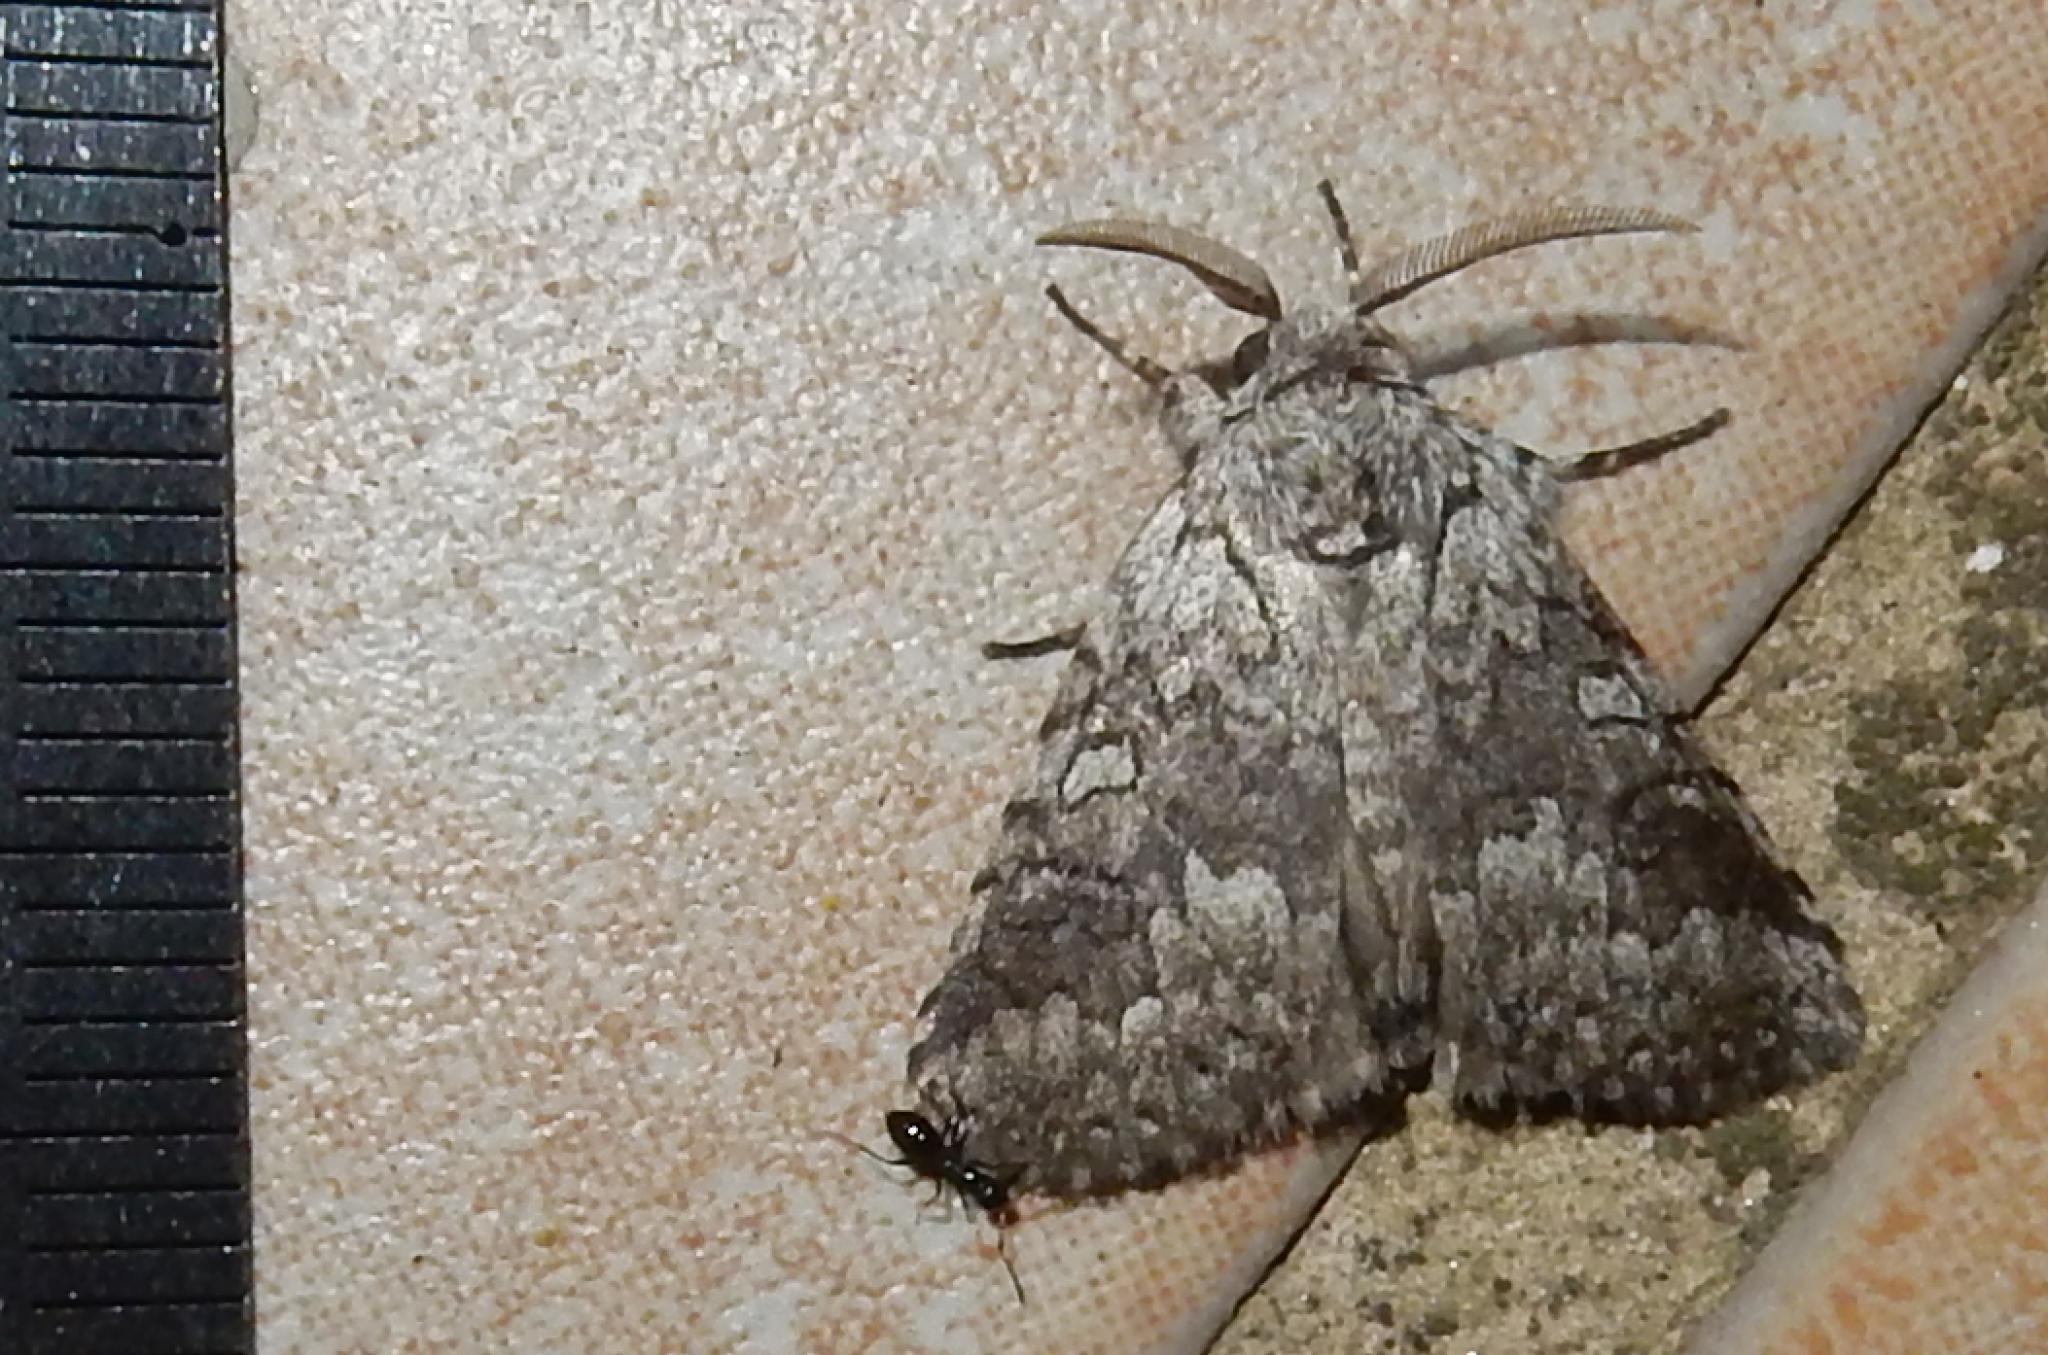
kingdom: Animalia
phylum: Arthropoda
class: Insecta
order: Lepidoptera
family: Erebidae
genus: Dasychira
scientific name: Dasychira Dicranuropsis vilis
